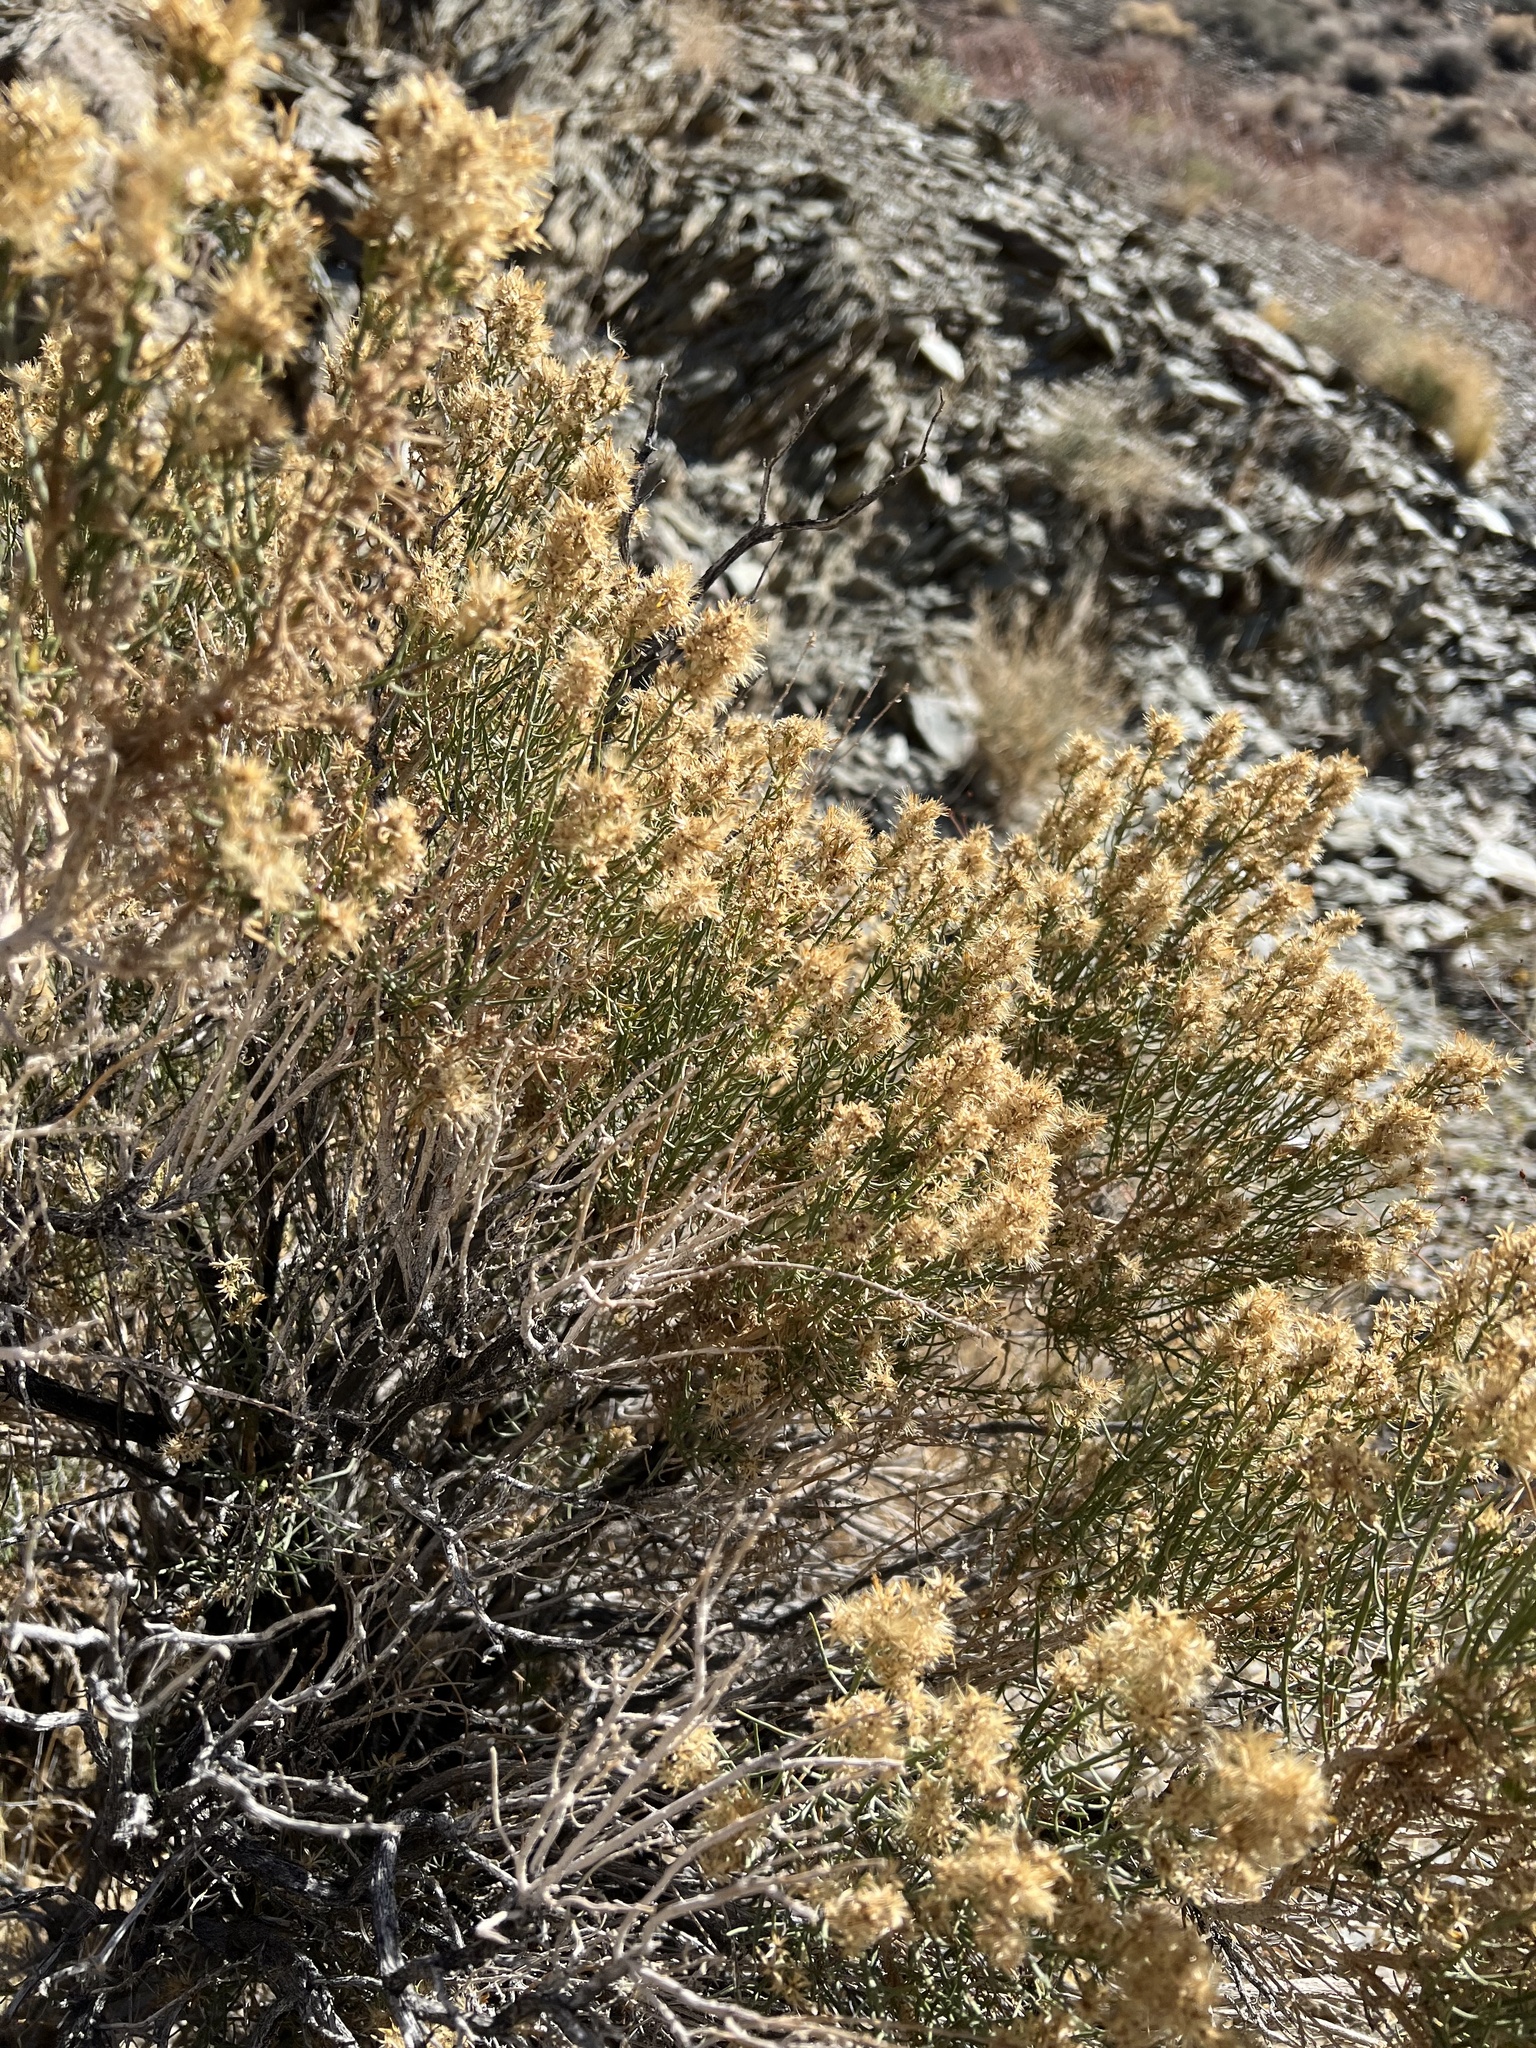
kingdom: Plantae
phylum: Tracheophyta
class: Magnoliopsida
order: Asterales
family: Asteraceae
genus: Ericameria
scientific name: Ericameria teretifolia
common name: Round-leaf rabbitbrush
